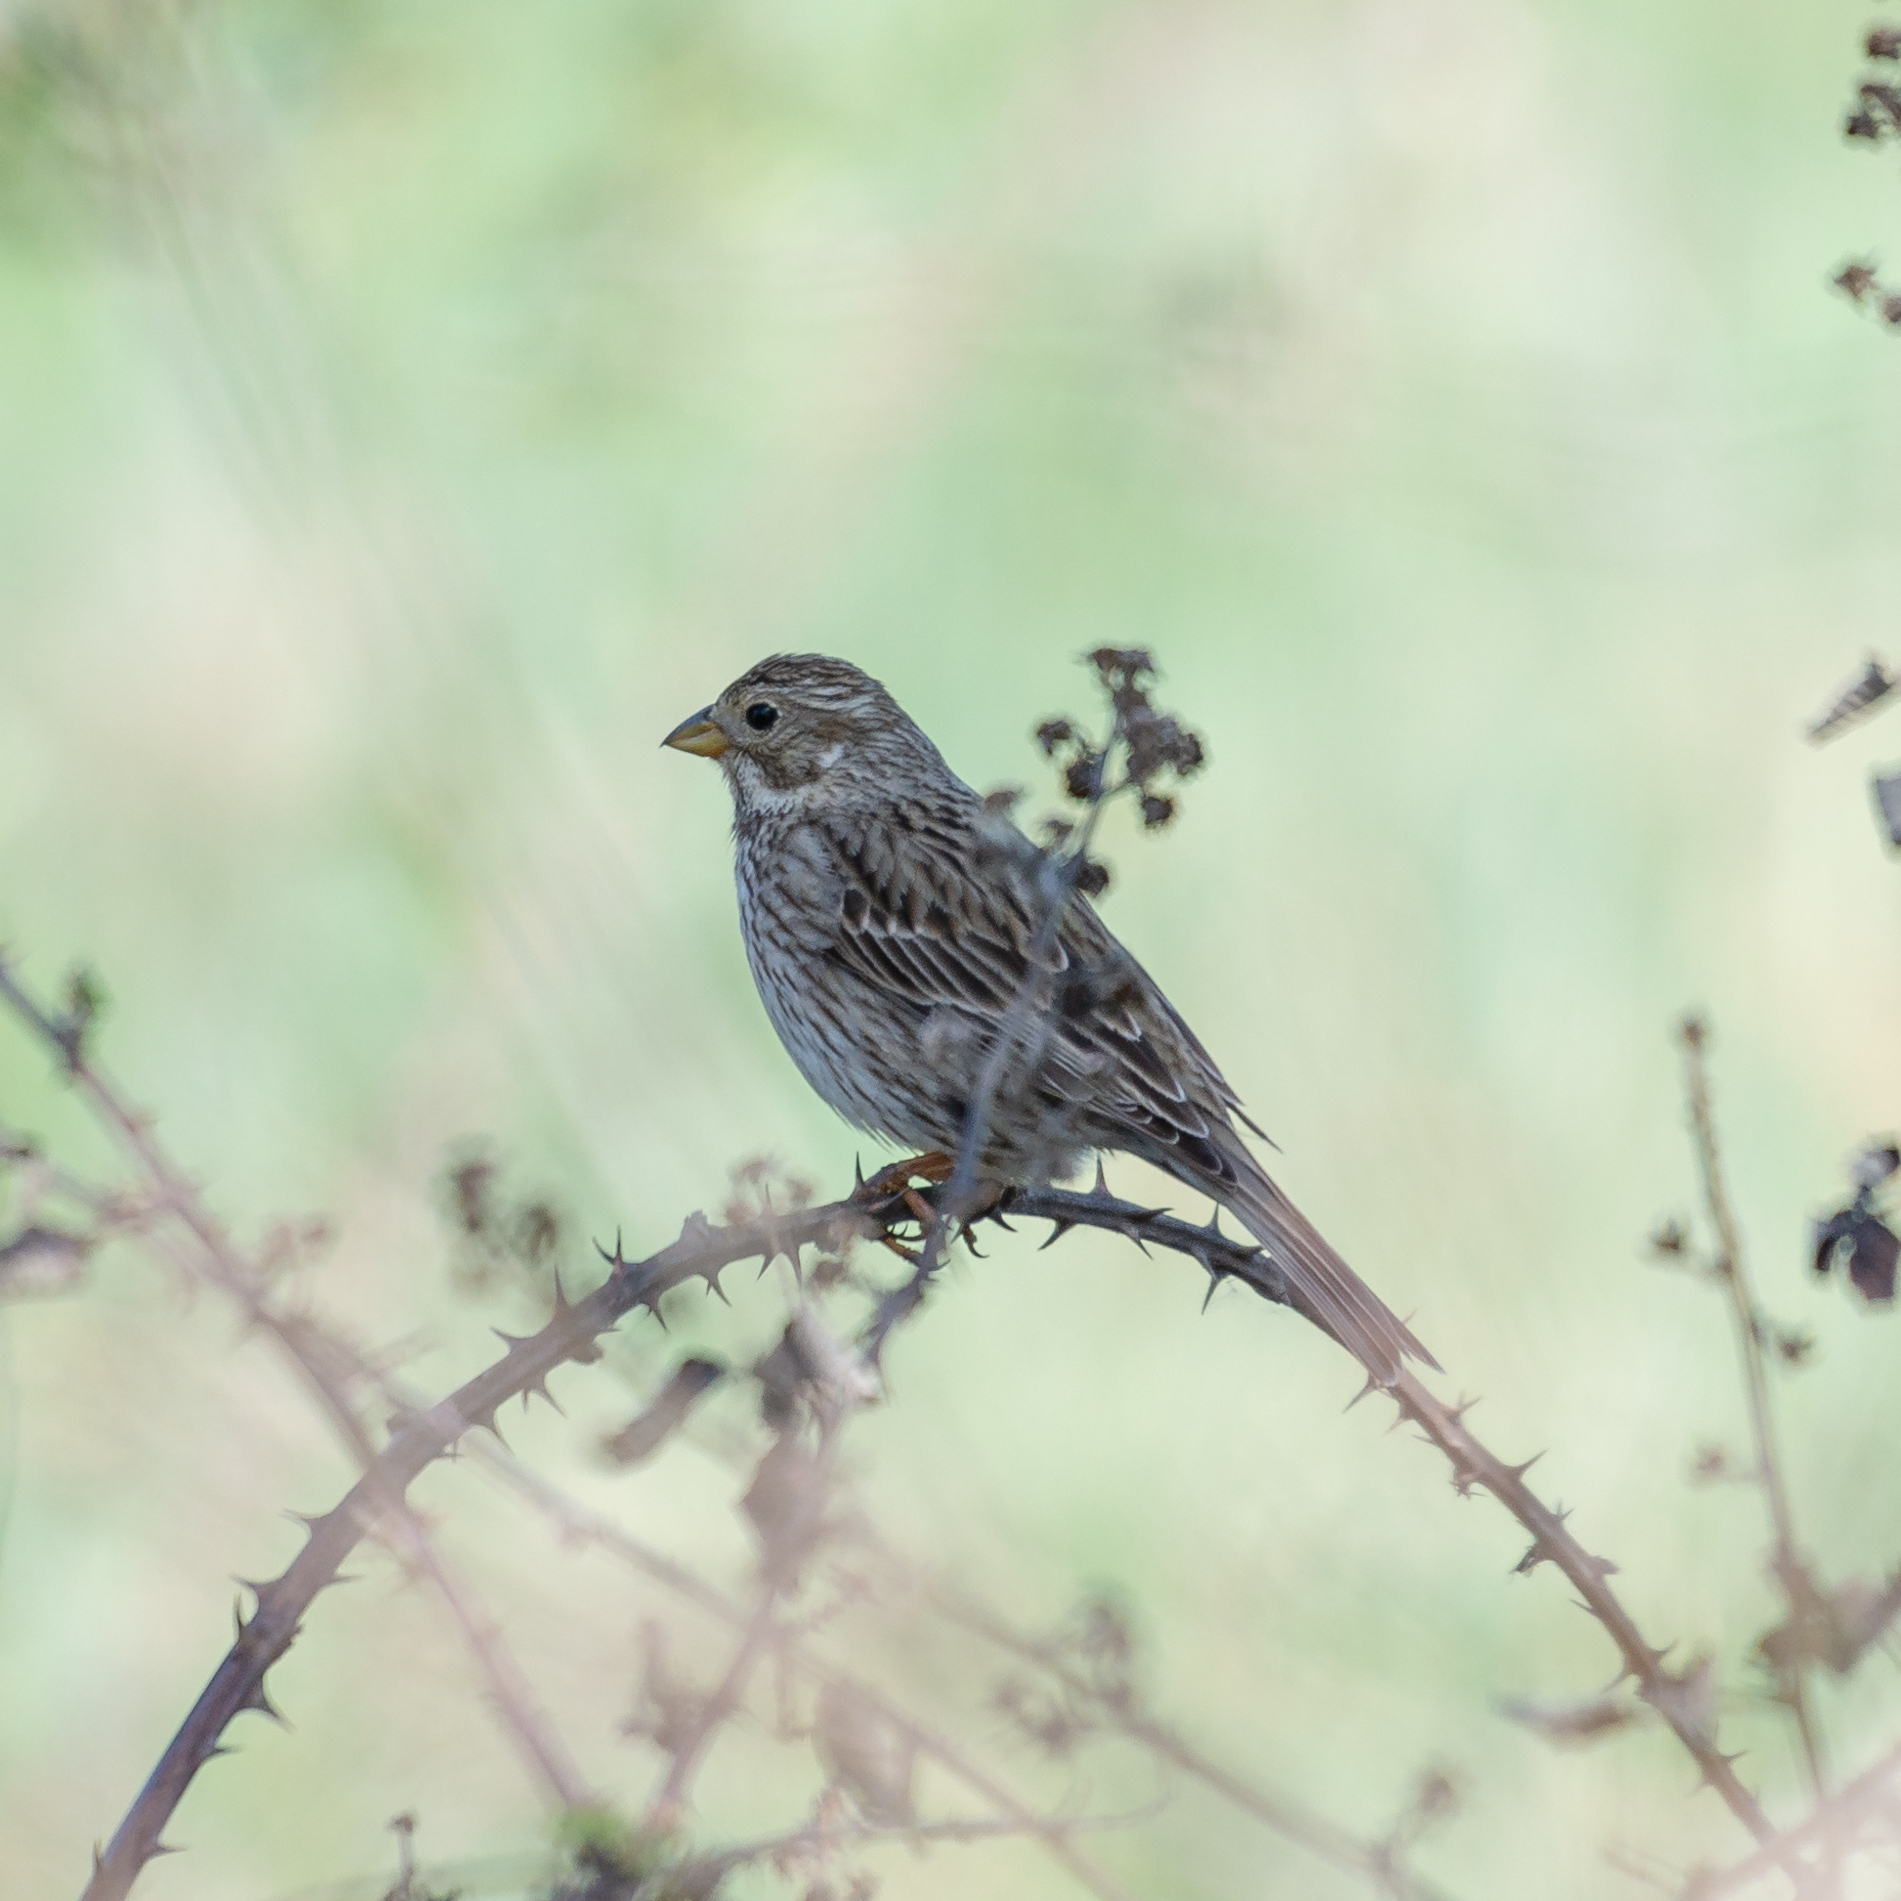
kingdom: Animalia
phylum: Chordata
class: Aves
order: Passeriformes
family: Emberizidae
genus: Emberiza
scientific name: Emberiza calandra
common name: Corn bunting
